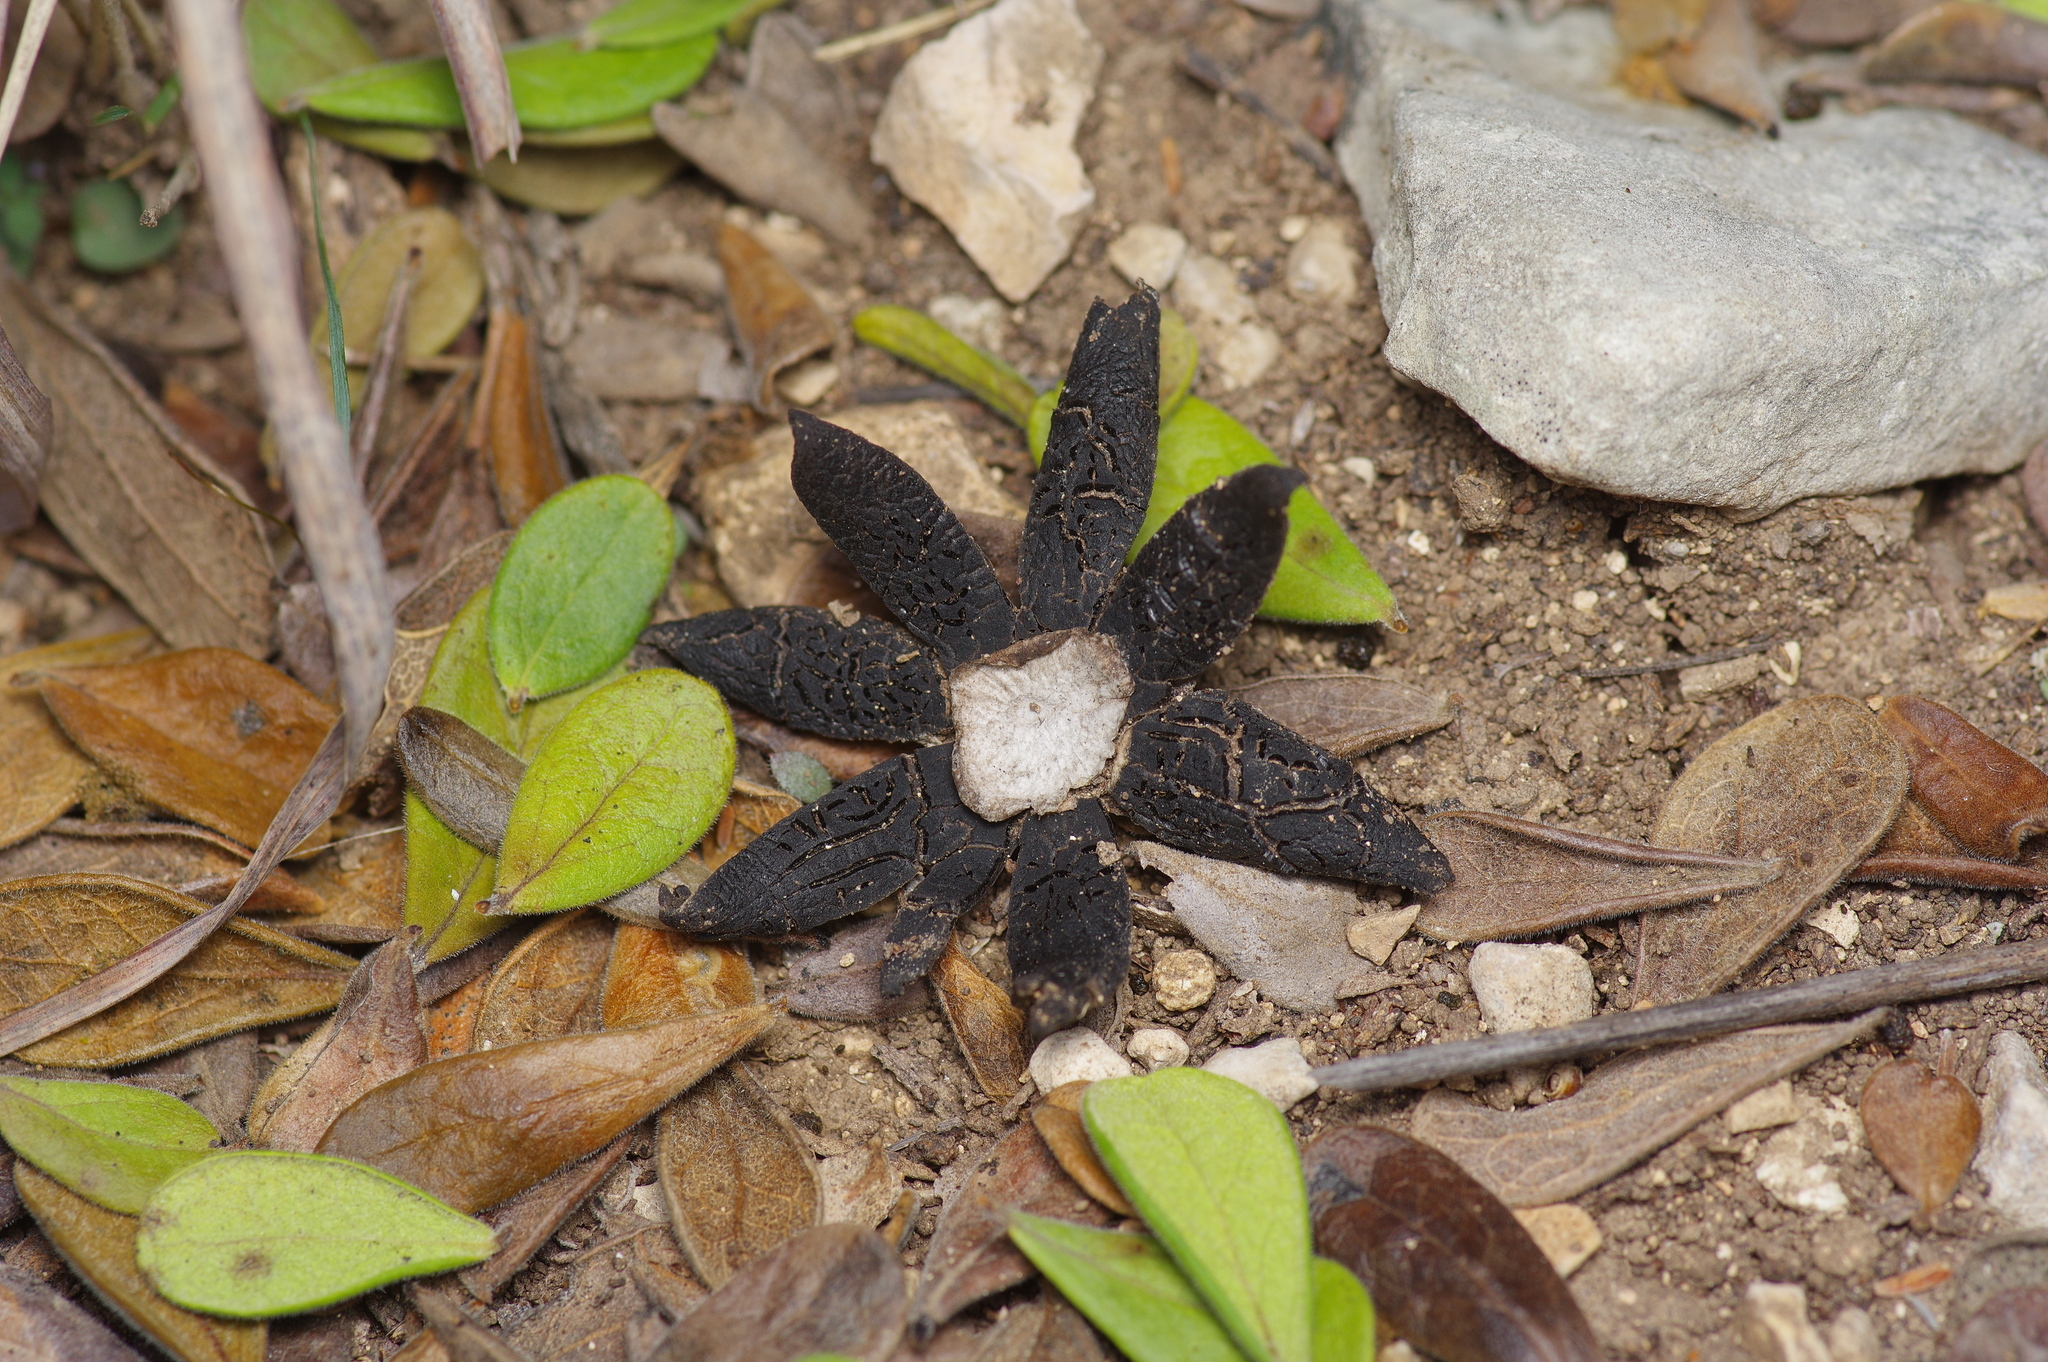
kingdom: Fungi
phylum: Basidiomycota
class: Agaricomycetes
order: Boletales
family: Diplocystidiaceae
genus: Astraeus
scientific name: Astraeus morganii
